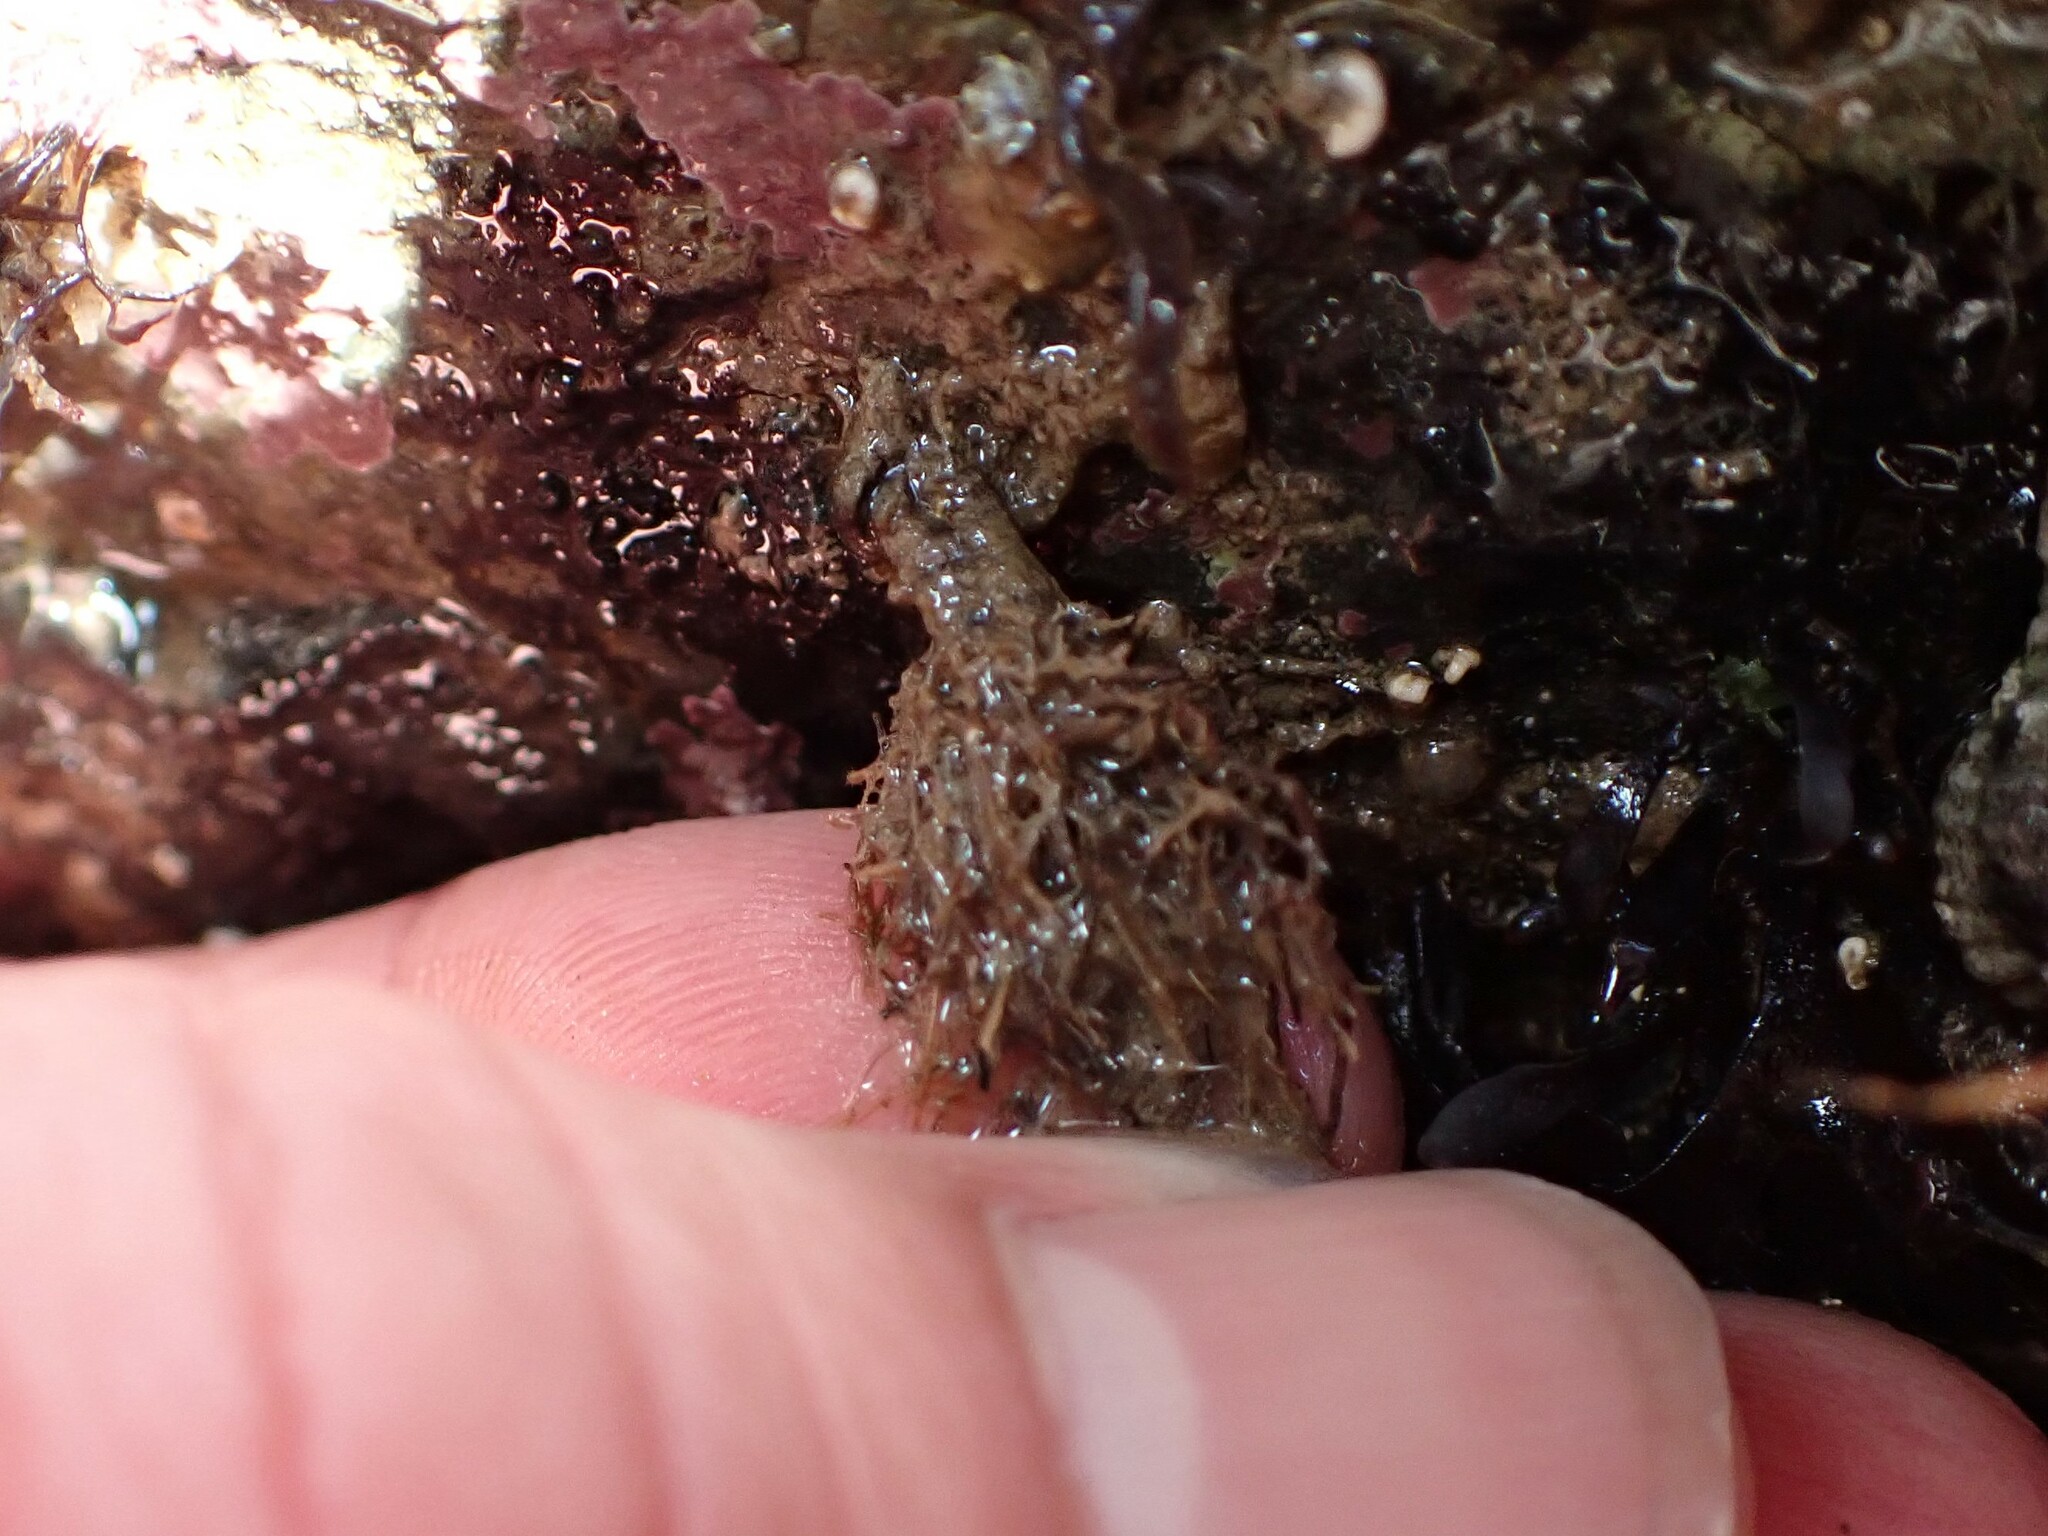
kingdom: Animalia
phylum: Annelida
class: Polychaeta
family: Terebellidae
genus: Pista
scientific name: Pista elongata
